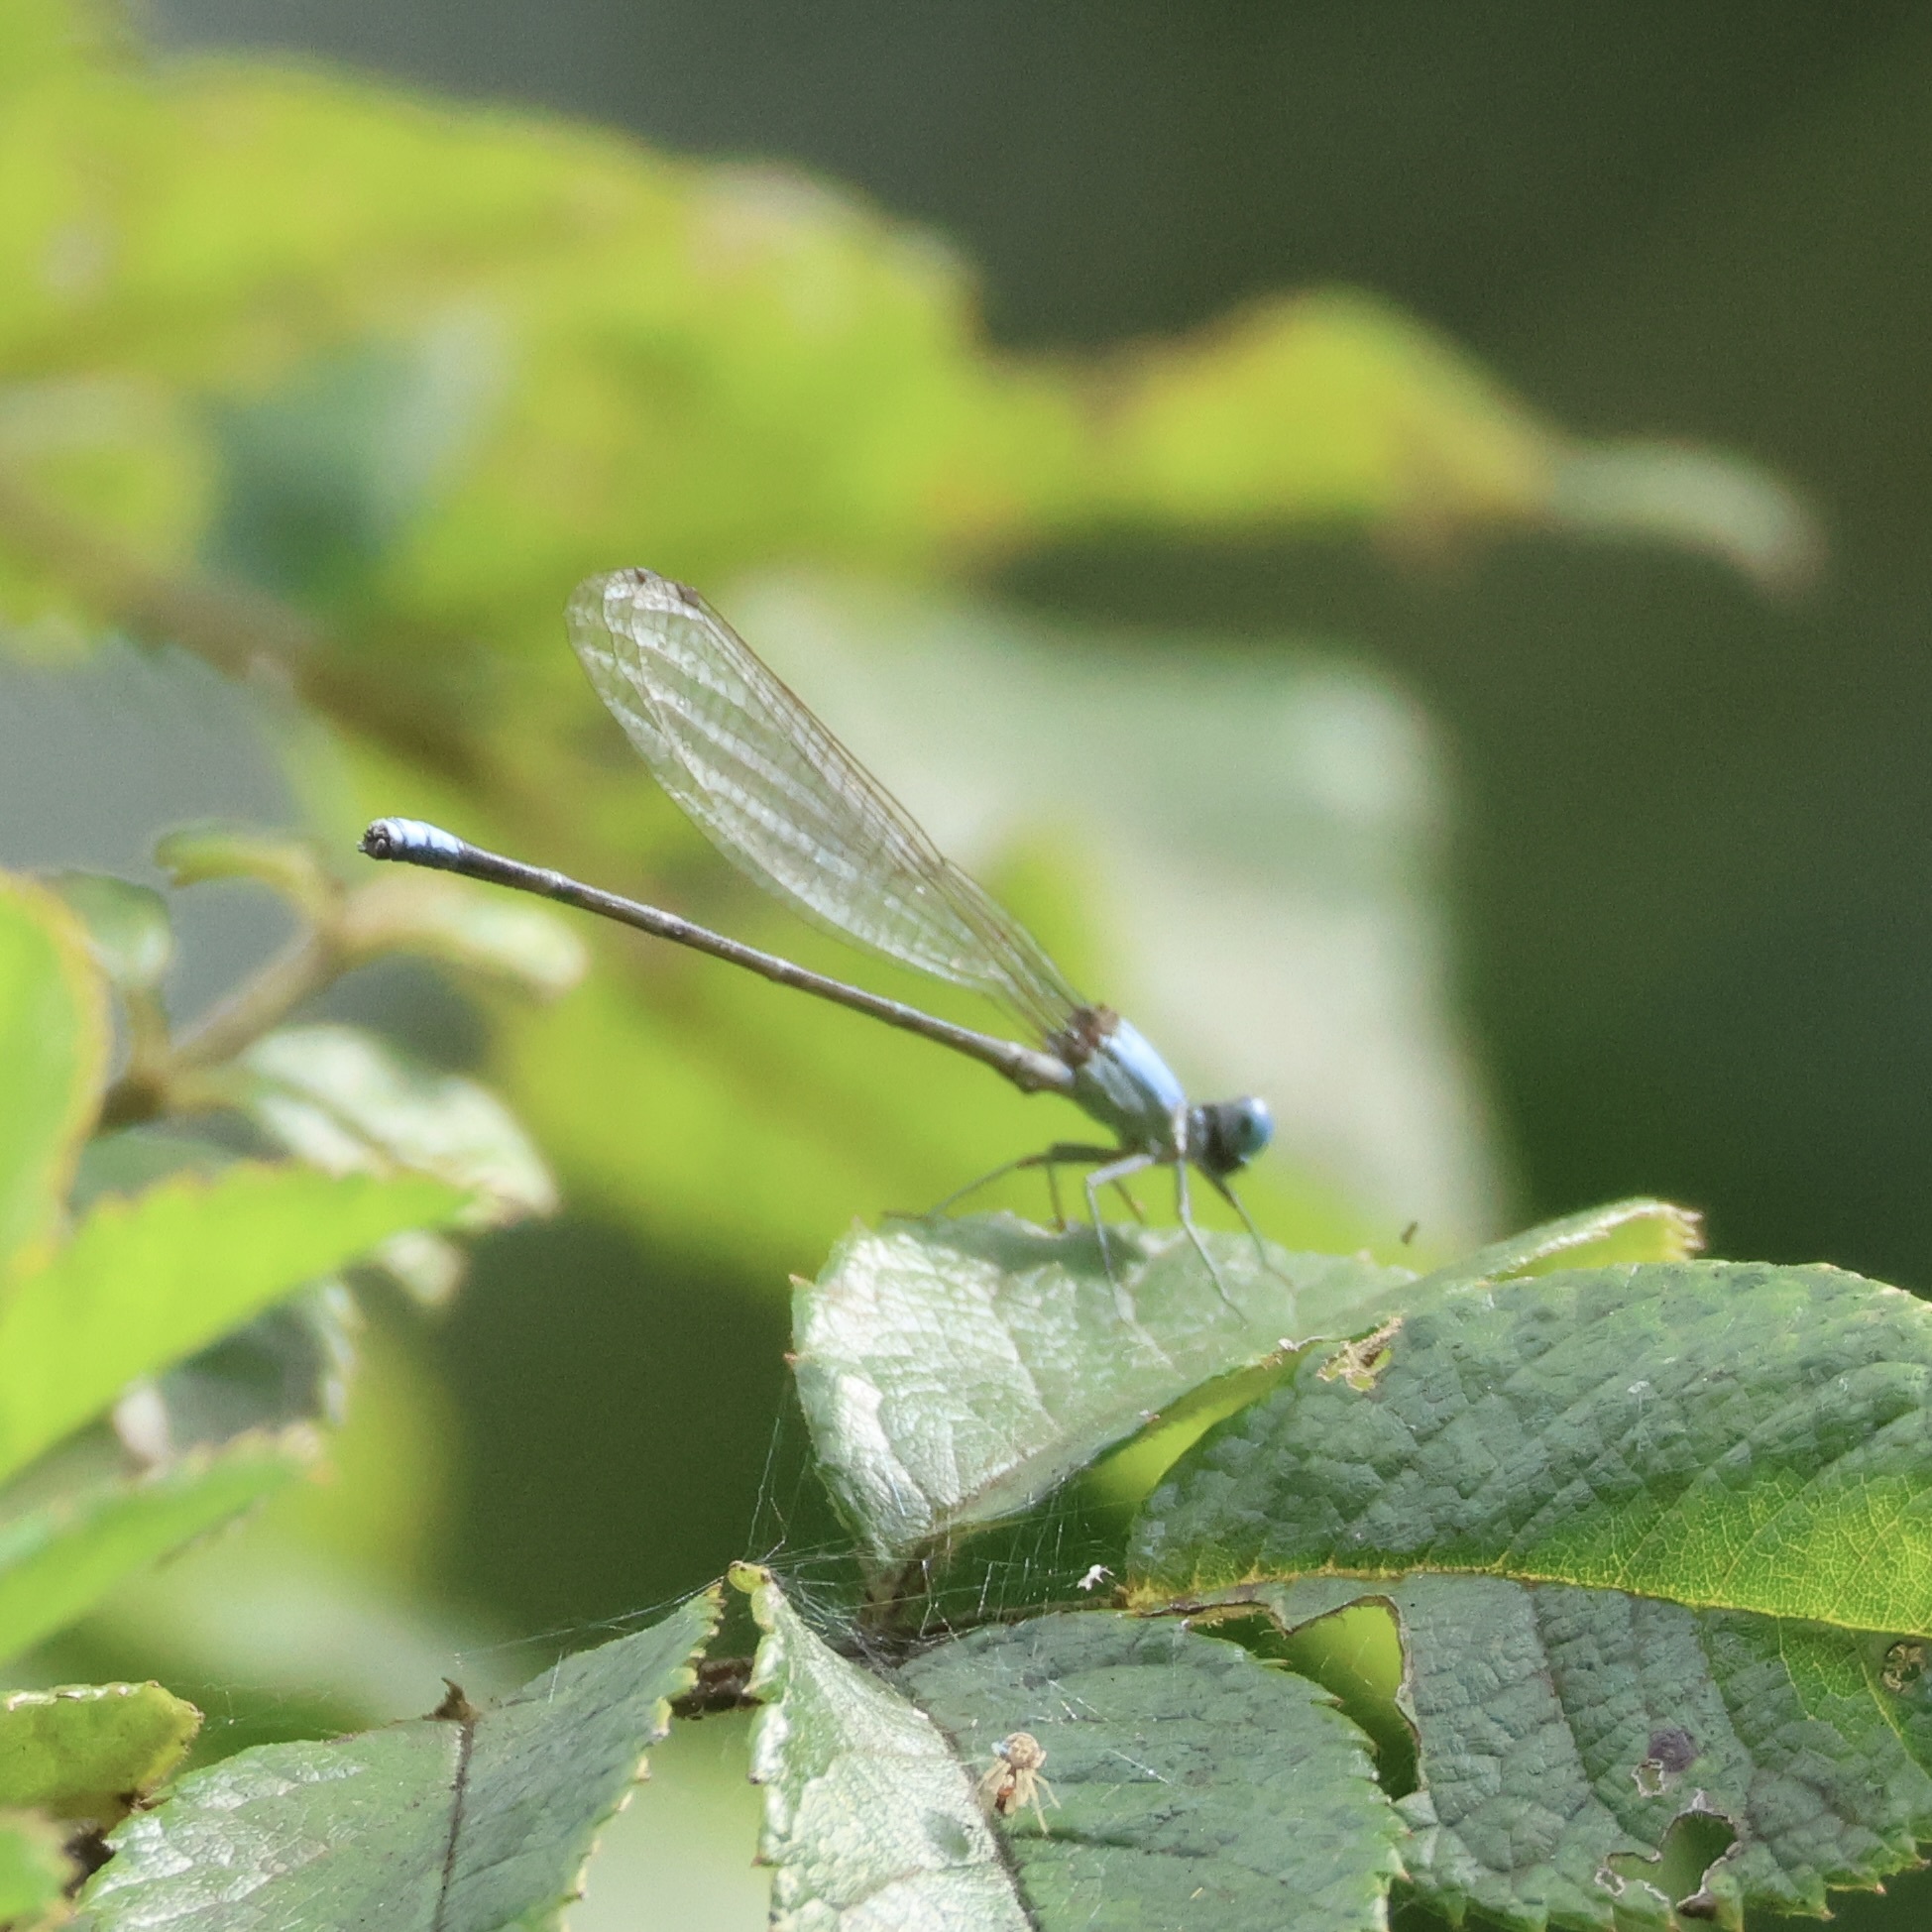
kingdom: Animalia
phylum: Arthropoda
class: Insecta
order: Odonata
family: Coenagrionidae
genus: Argia
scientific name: Argia apicalis
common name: Blue-fronted dancer
